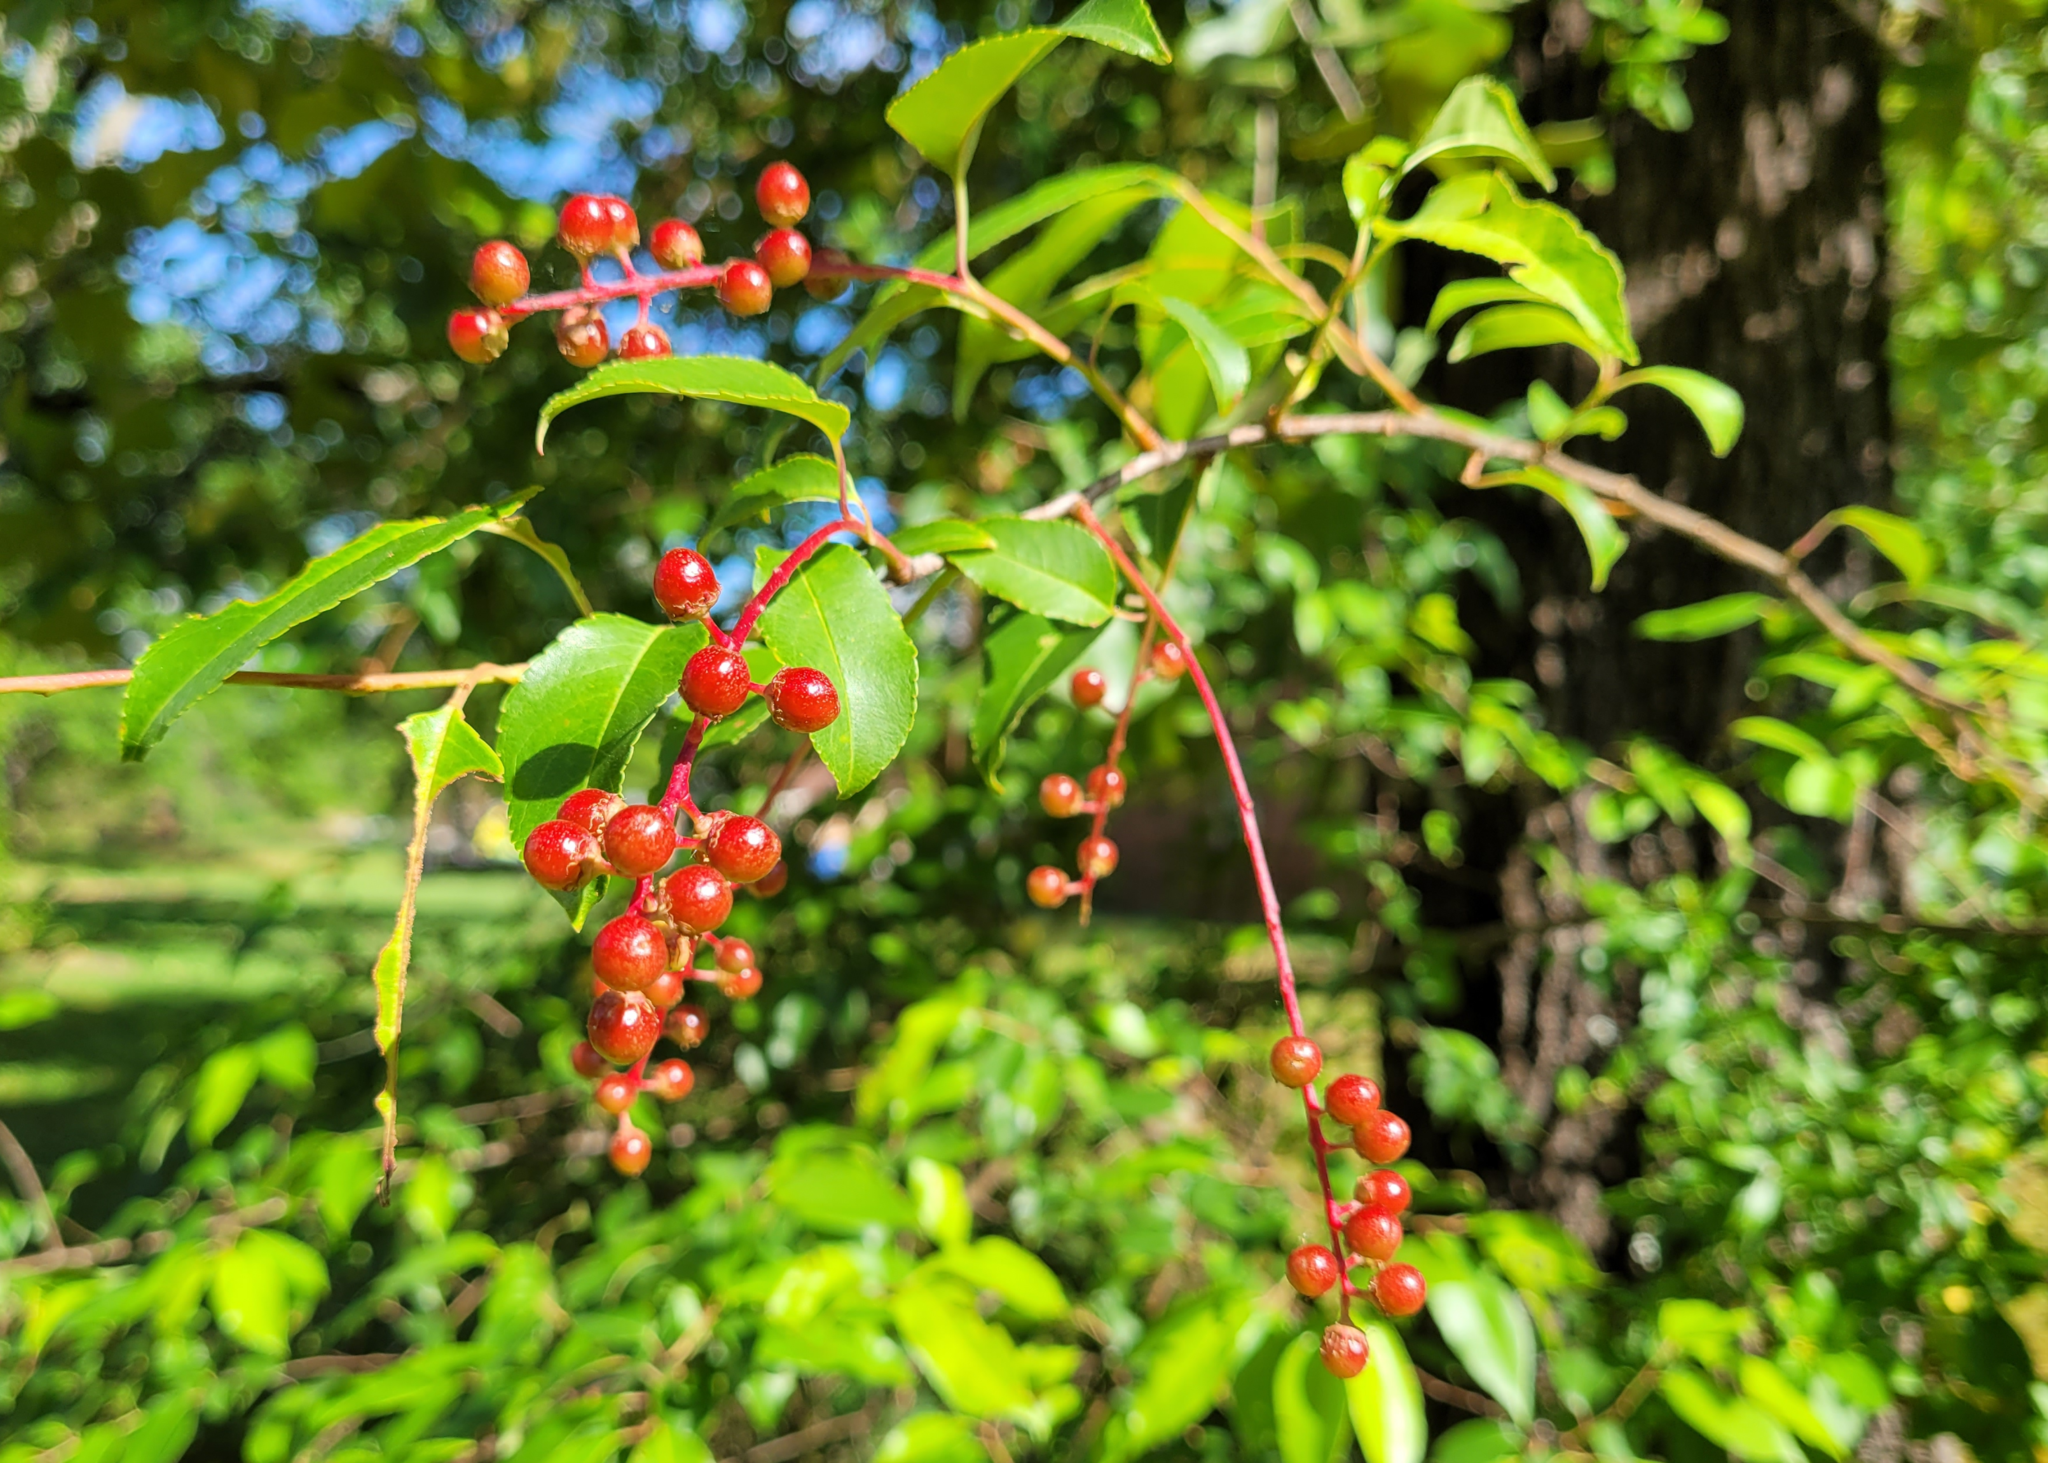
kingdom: Plantae
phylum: Tracheophyta
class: Magnoliopsida
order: Rosales
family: Rosaceae
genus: Prunus
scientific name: Prunus serotina
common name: Black cherry
